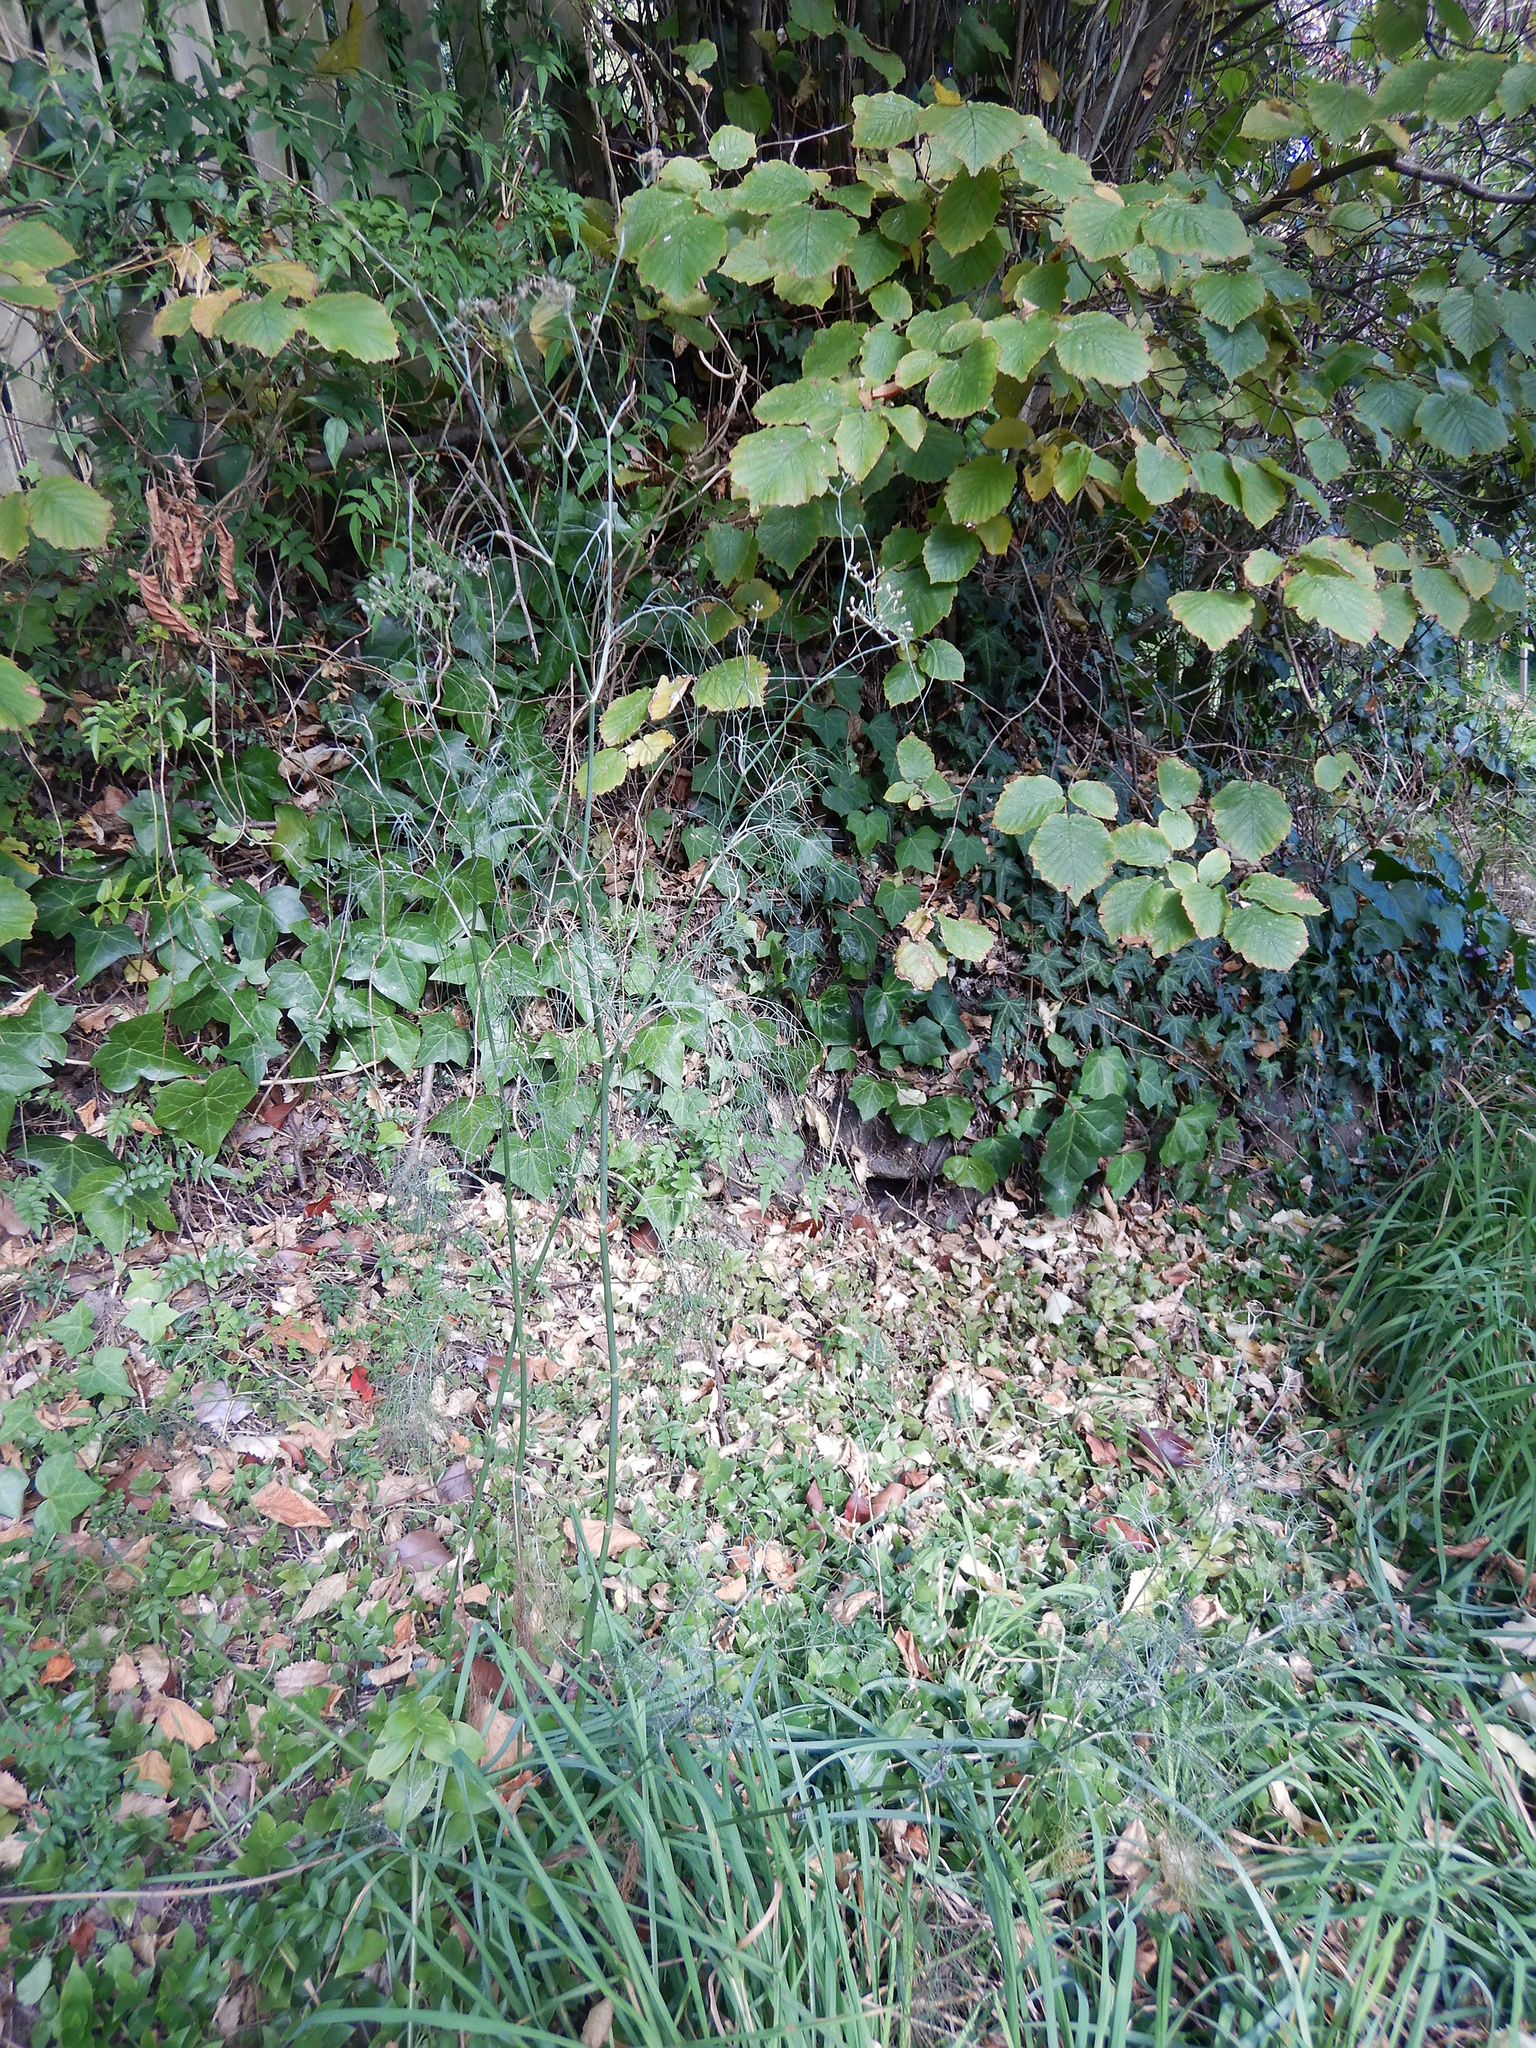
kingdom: Plantae
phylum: Tracheophyta
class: Magnoliopsida
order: Apiales
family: Apiaceae
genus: Foeniculum
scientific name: Foeniculum vulgare
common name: Fennel
